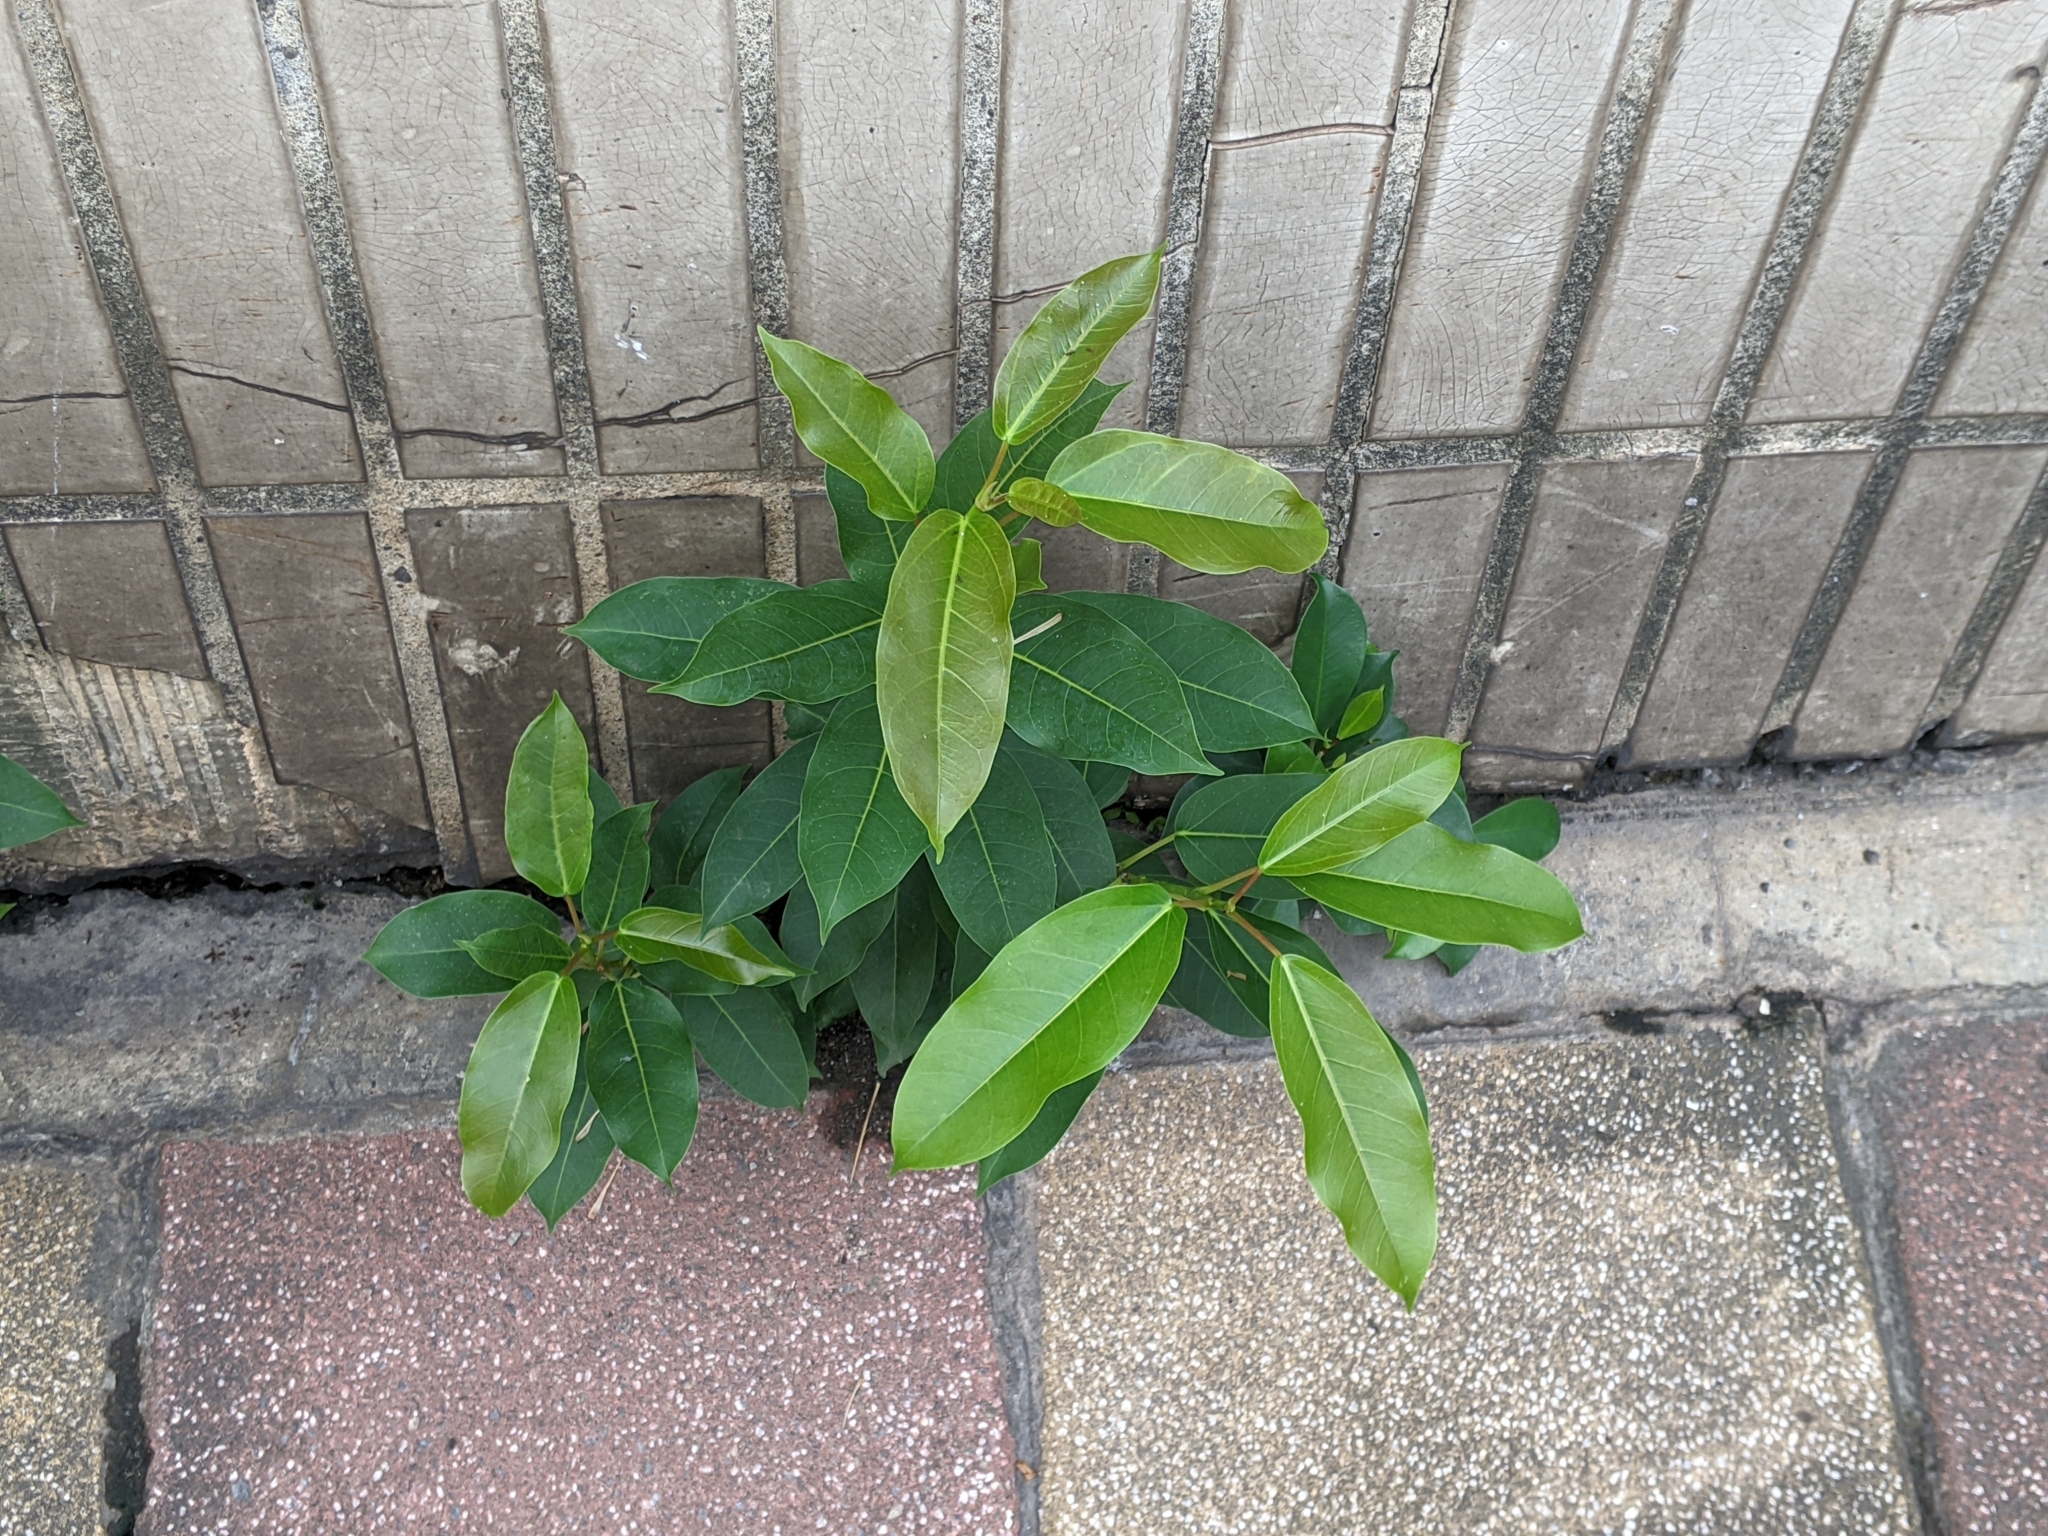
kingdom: Plantae
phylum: Tracheophyta
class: Magnoliopsida
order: Rosales
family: Moraceae
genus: Ficus
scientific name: Ficus subpisocarpa
